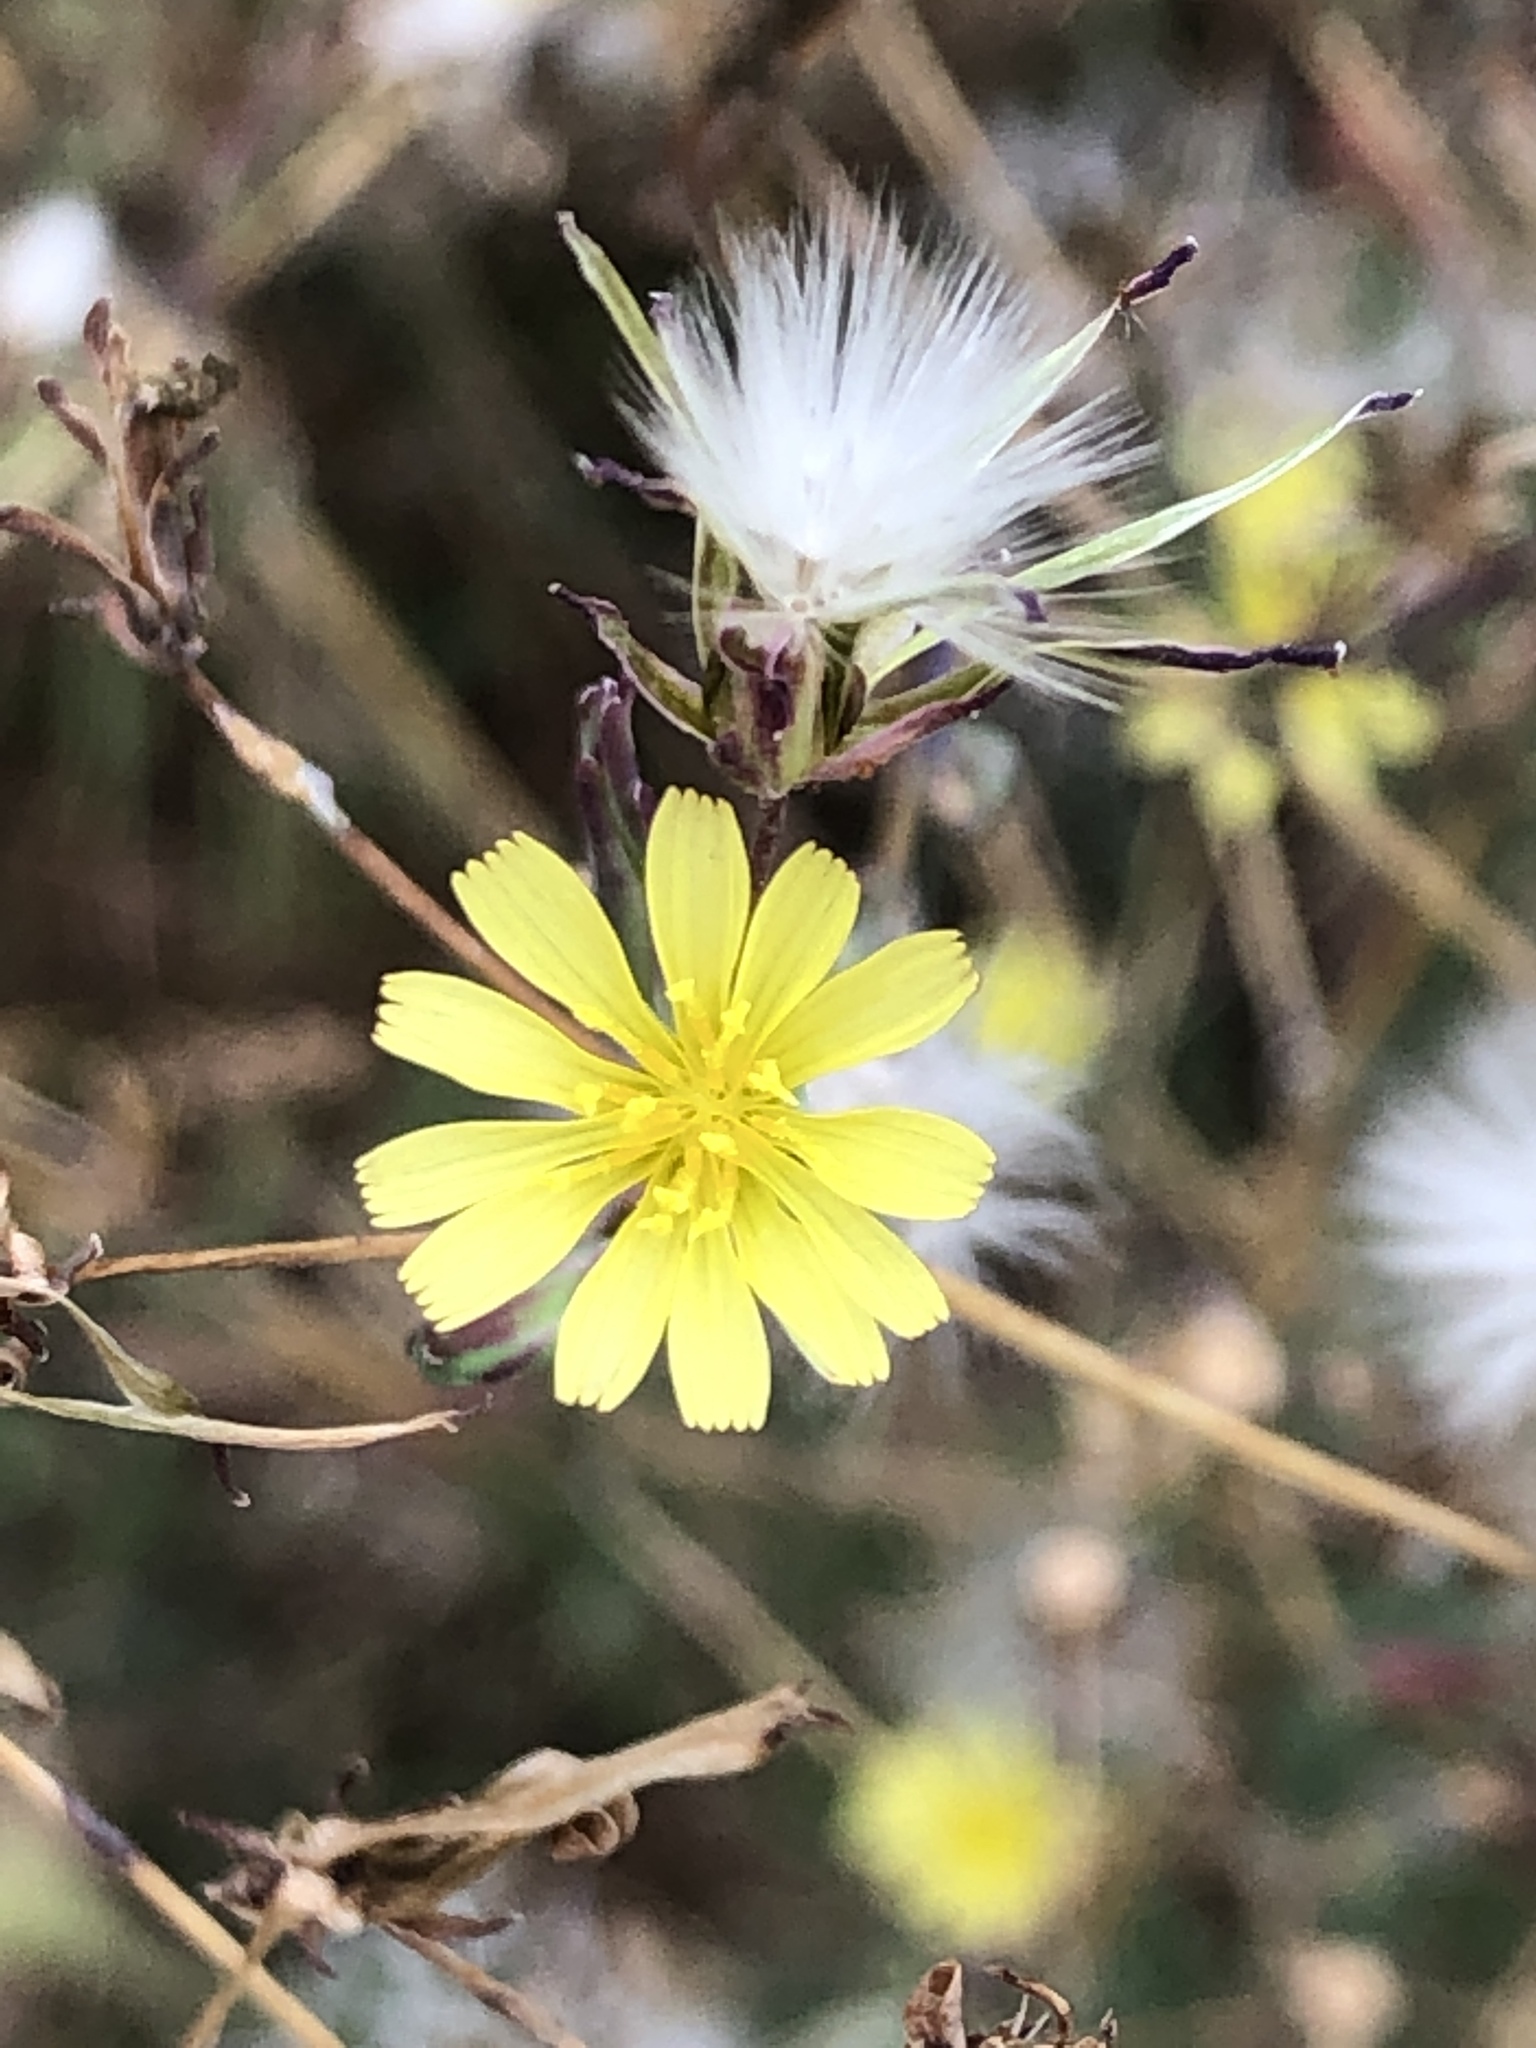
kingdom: Plantae
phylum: Tracheophyta
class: Magnoliopsida
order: Asterales
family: Asteraceae
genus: Lactuca
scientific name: Lactuca serriola
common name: Prickly lettuce
